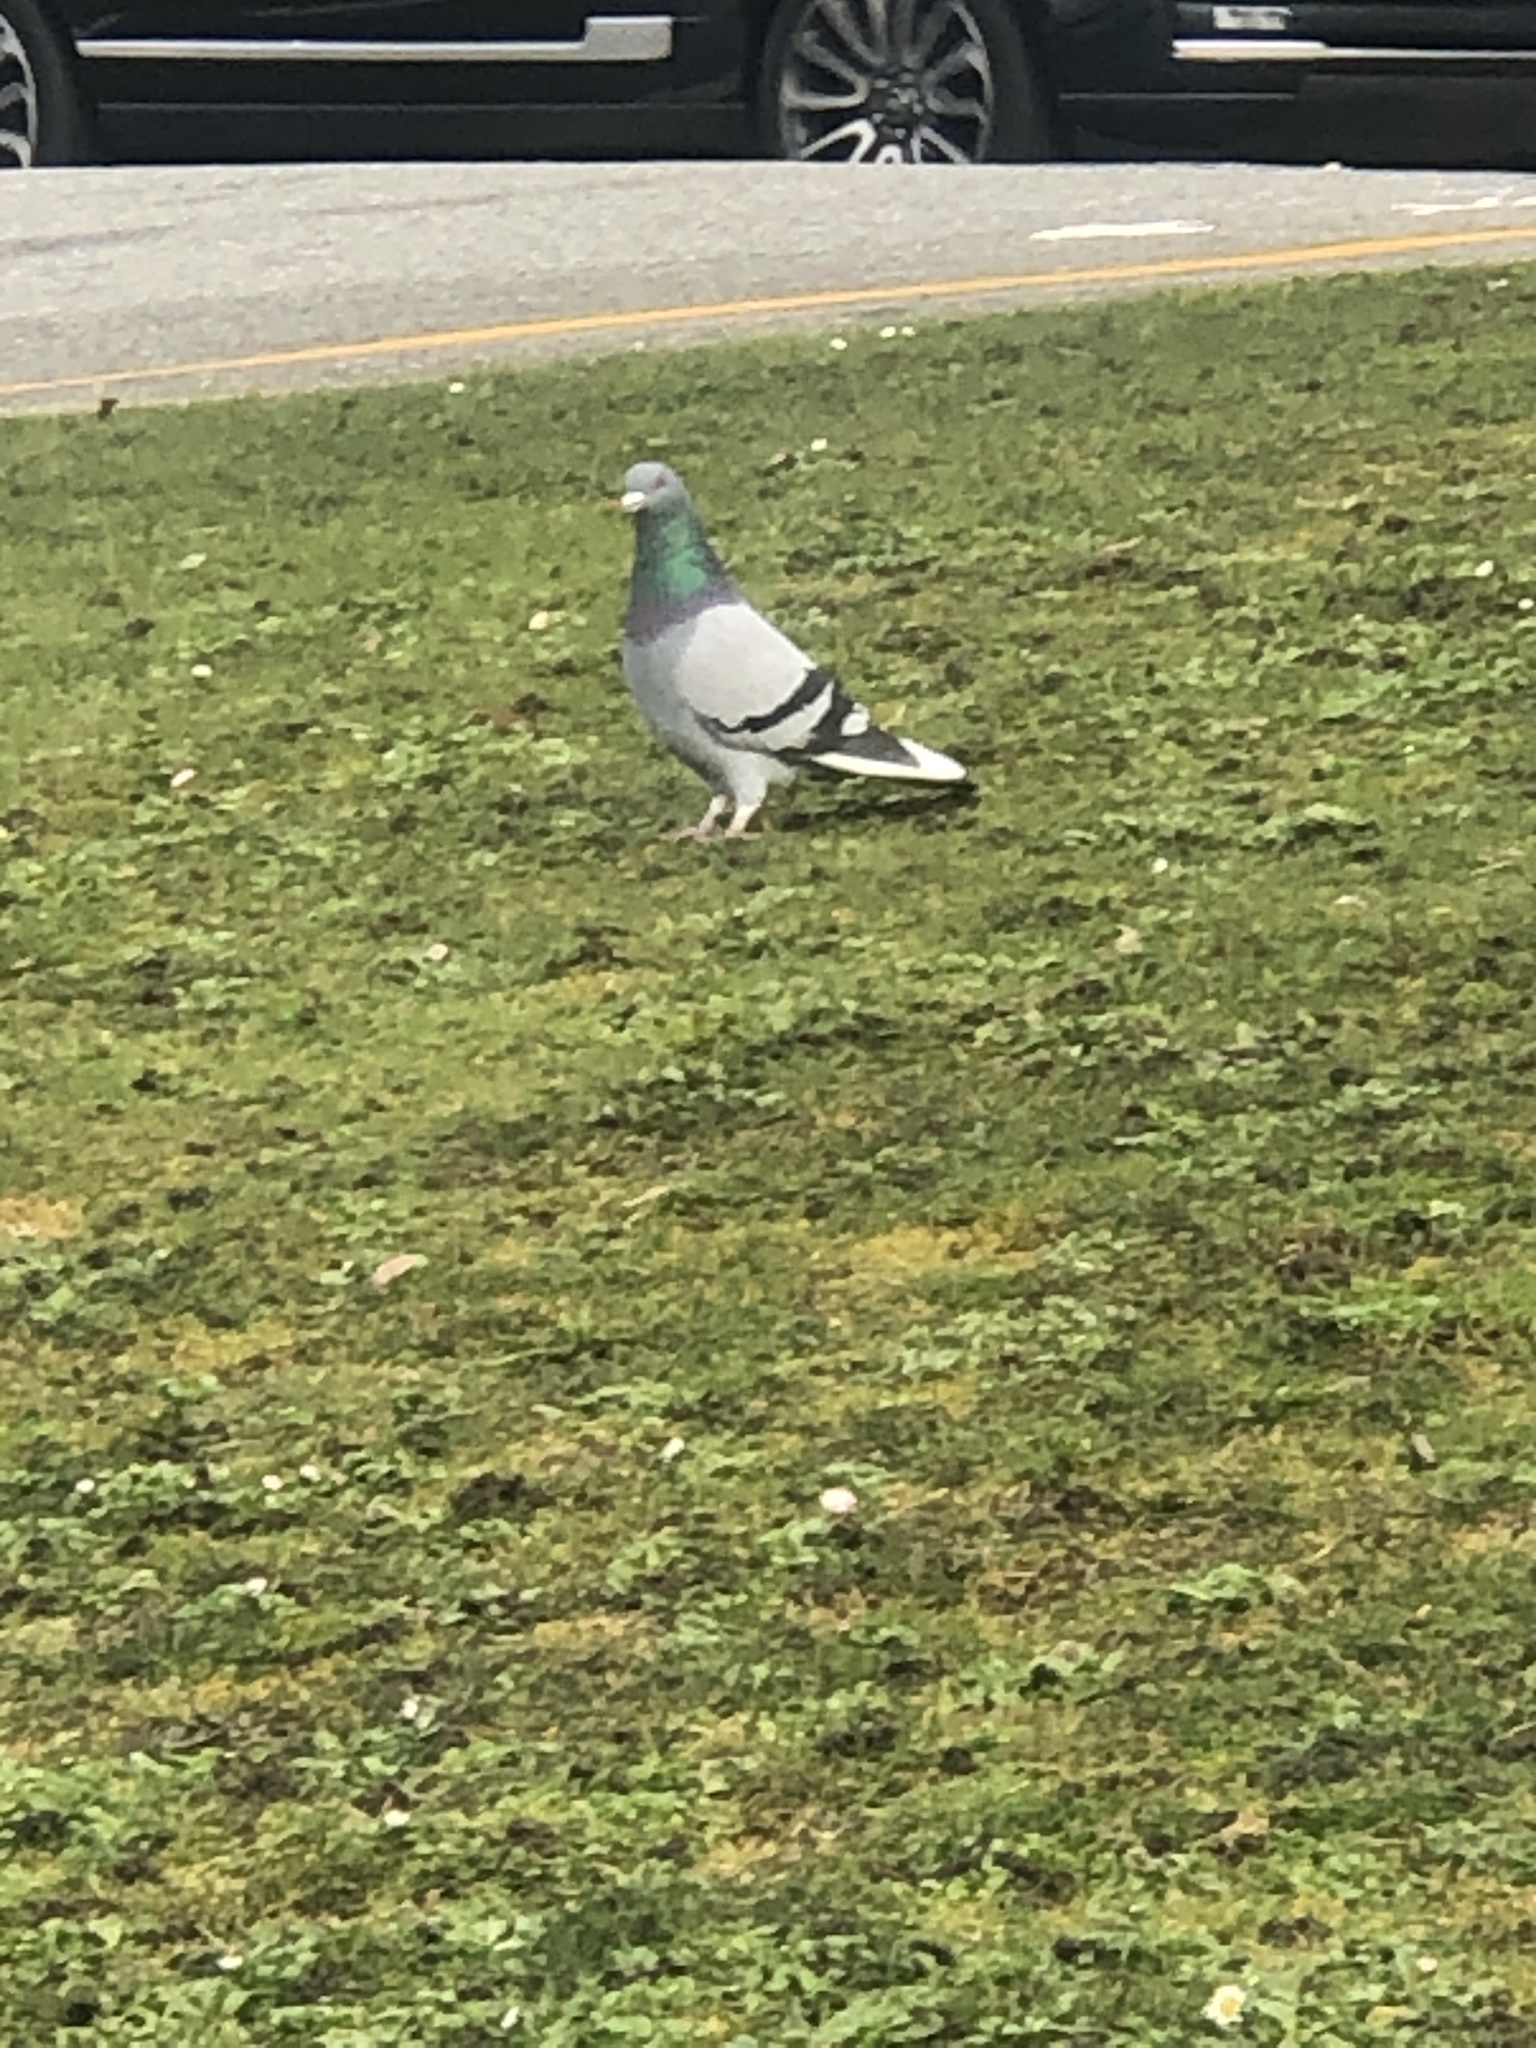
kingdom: Animalia
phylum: Chordata
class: Aves
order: Columbiformes
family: Columbidae
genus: Columba
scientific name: Columba livia
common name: Rock pigeon
